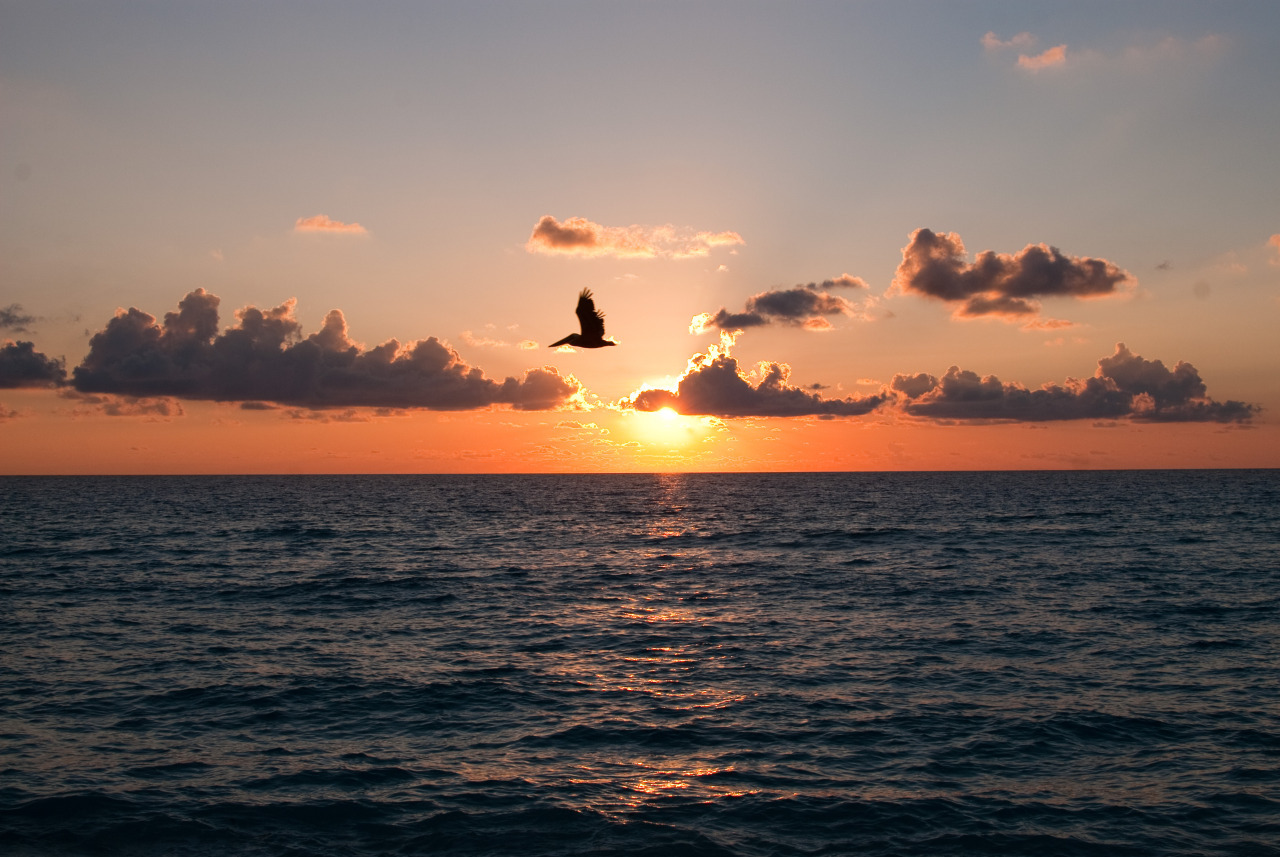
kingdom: Animalia
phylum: Chordata
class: Aves
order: Pelecaniformes
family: Pelecanidae
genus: Pelecanus
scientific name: Pelecanus occidentalis
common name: Brown pelican
